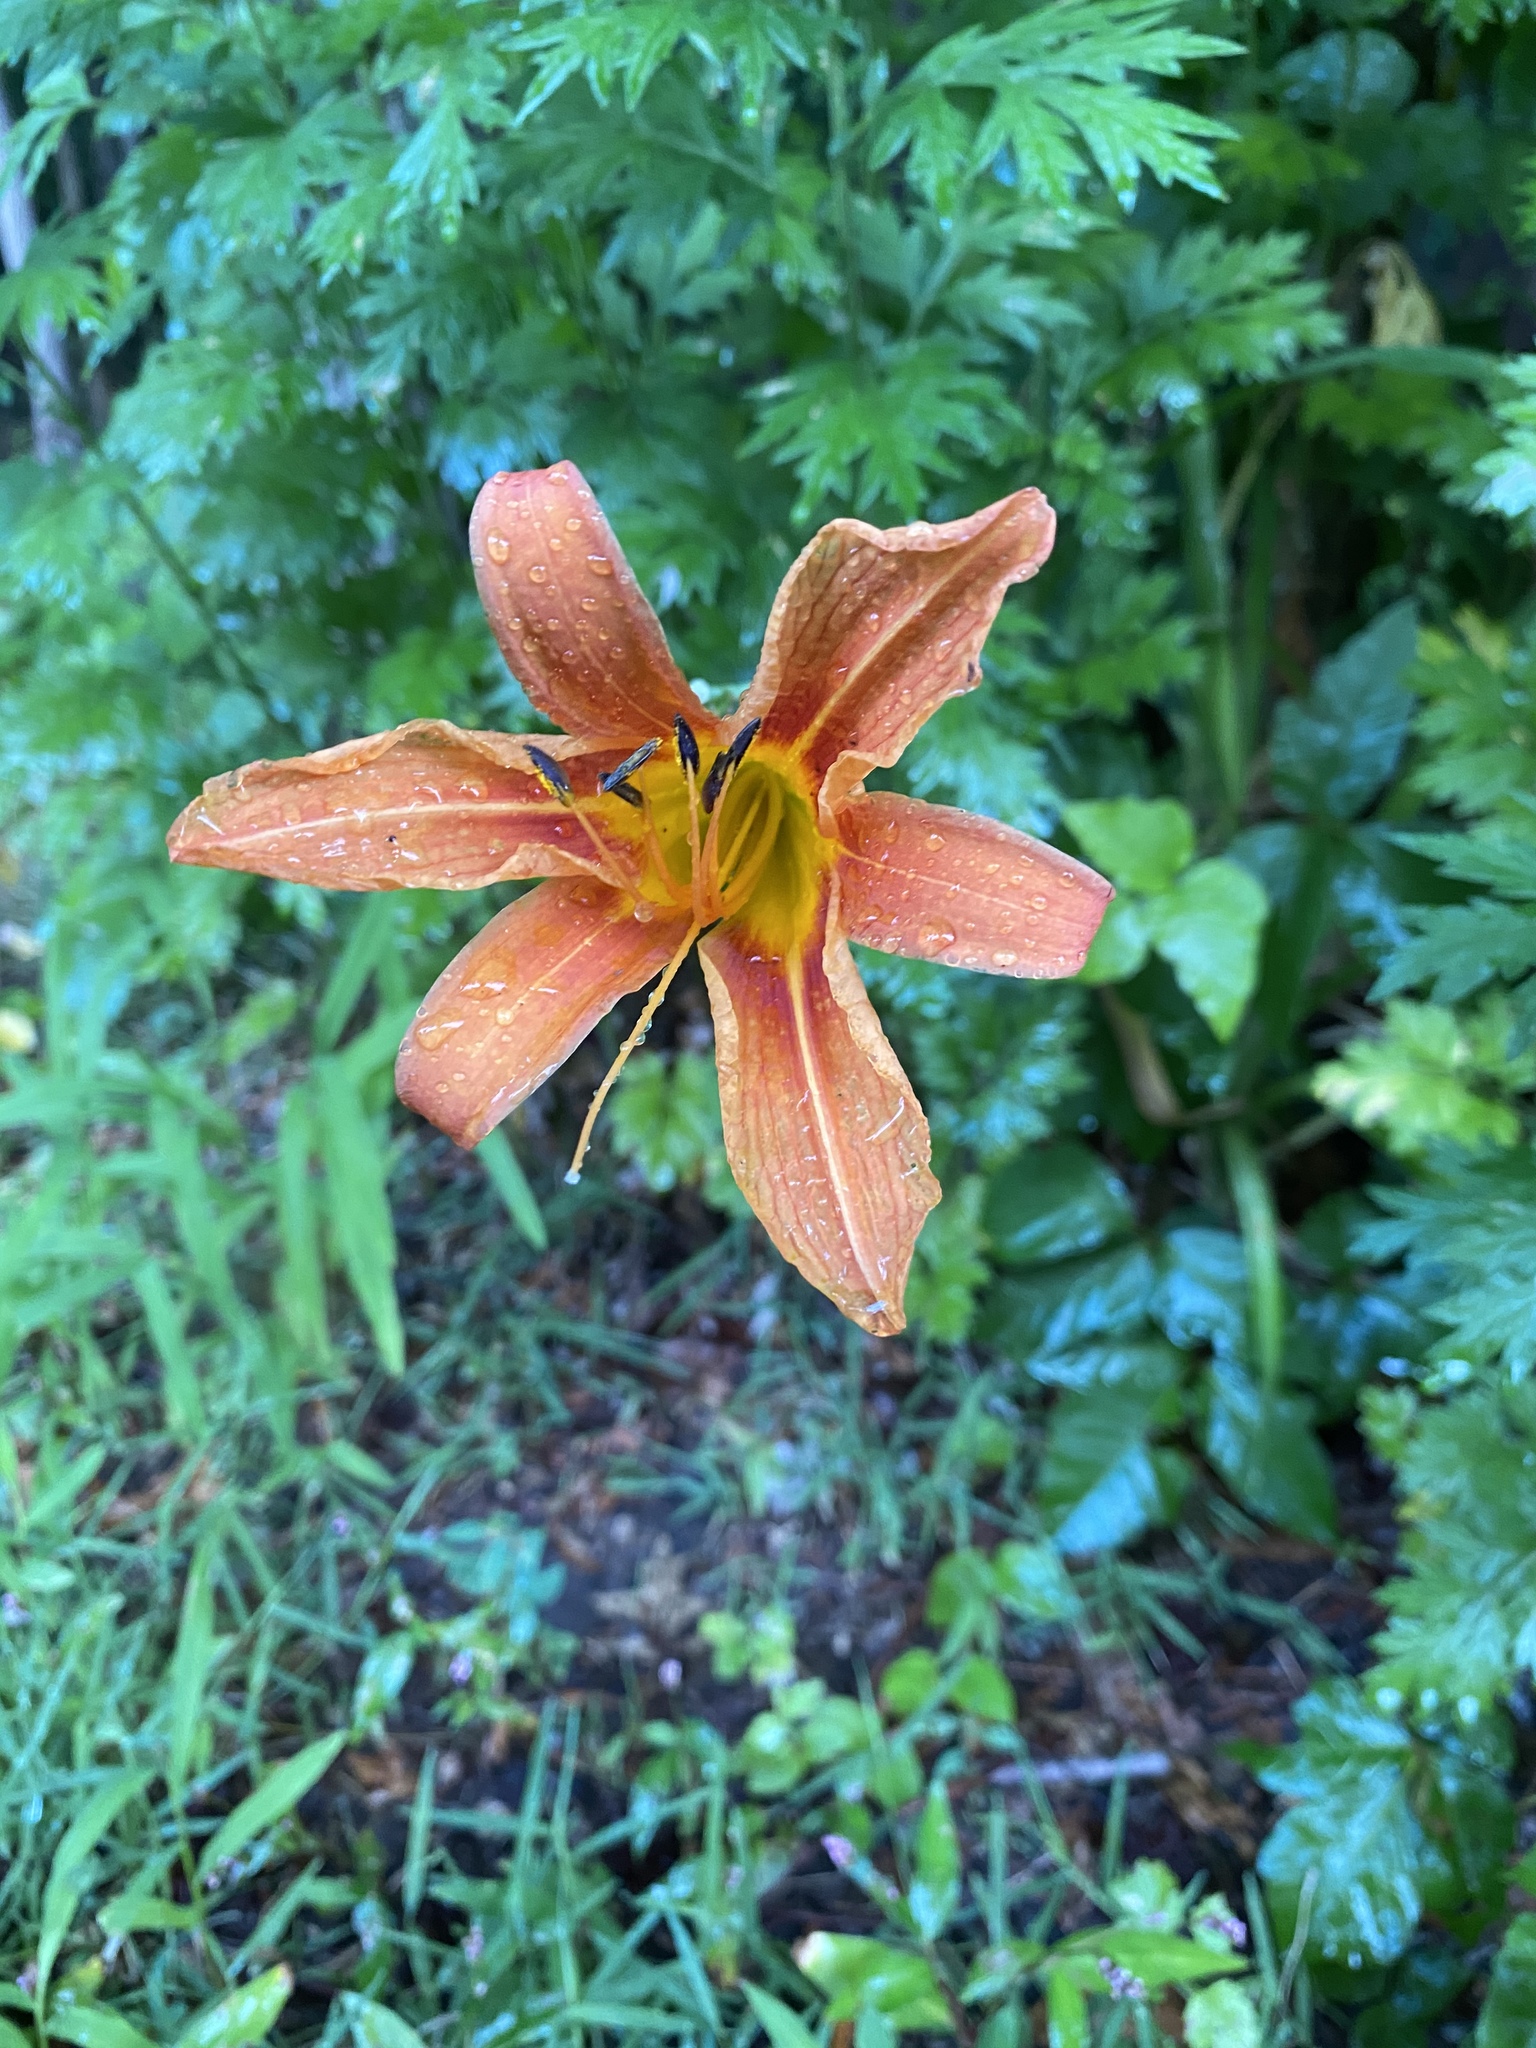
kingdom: Plantae
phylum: Tracheophyta
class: Liliopsida
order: Asparagales
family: Asphodelaceae
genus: Hemerocallis
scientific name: Hemerocallis fulva
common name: Orange day-lily
